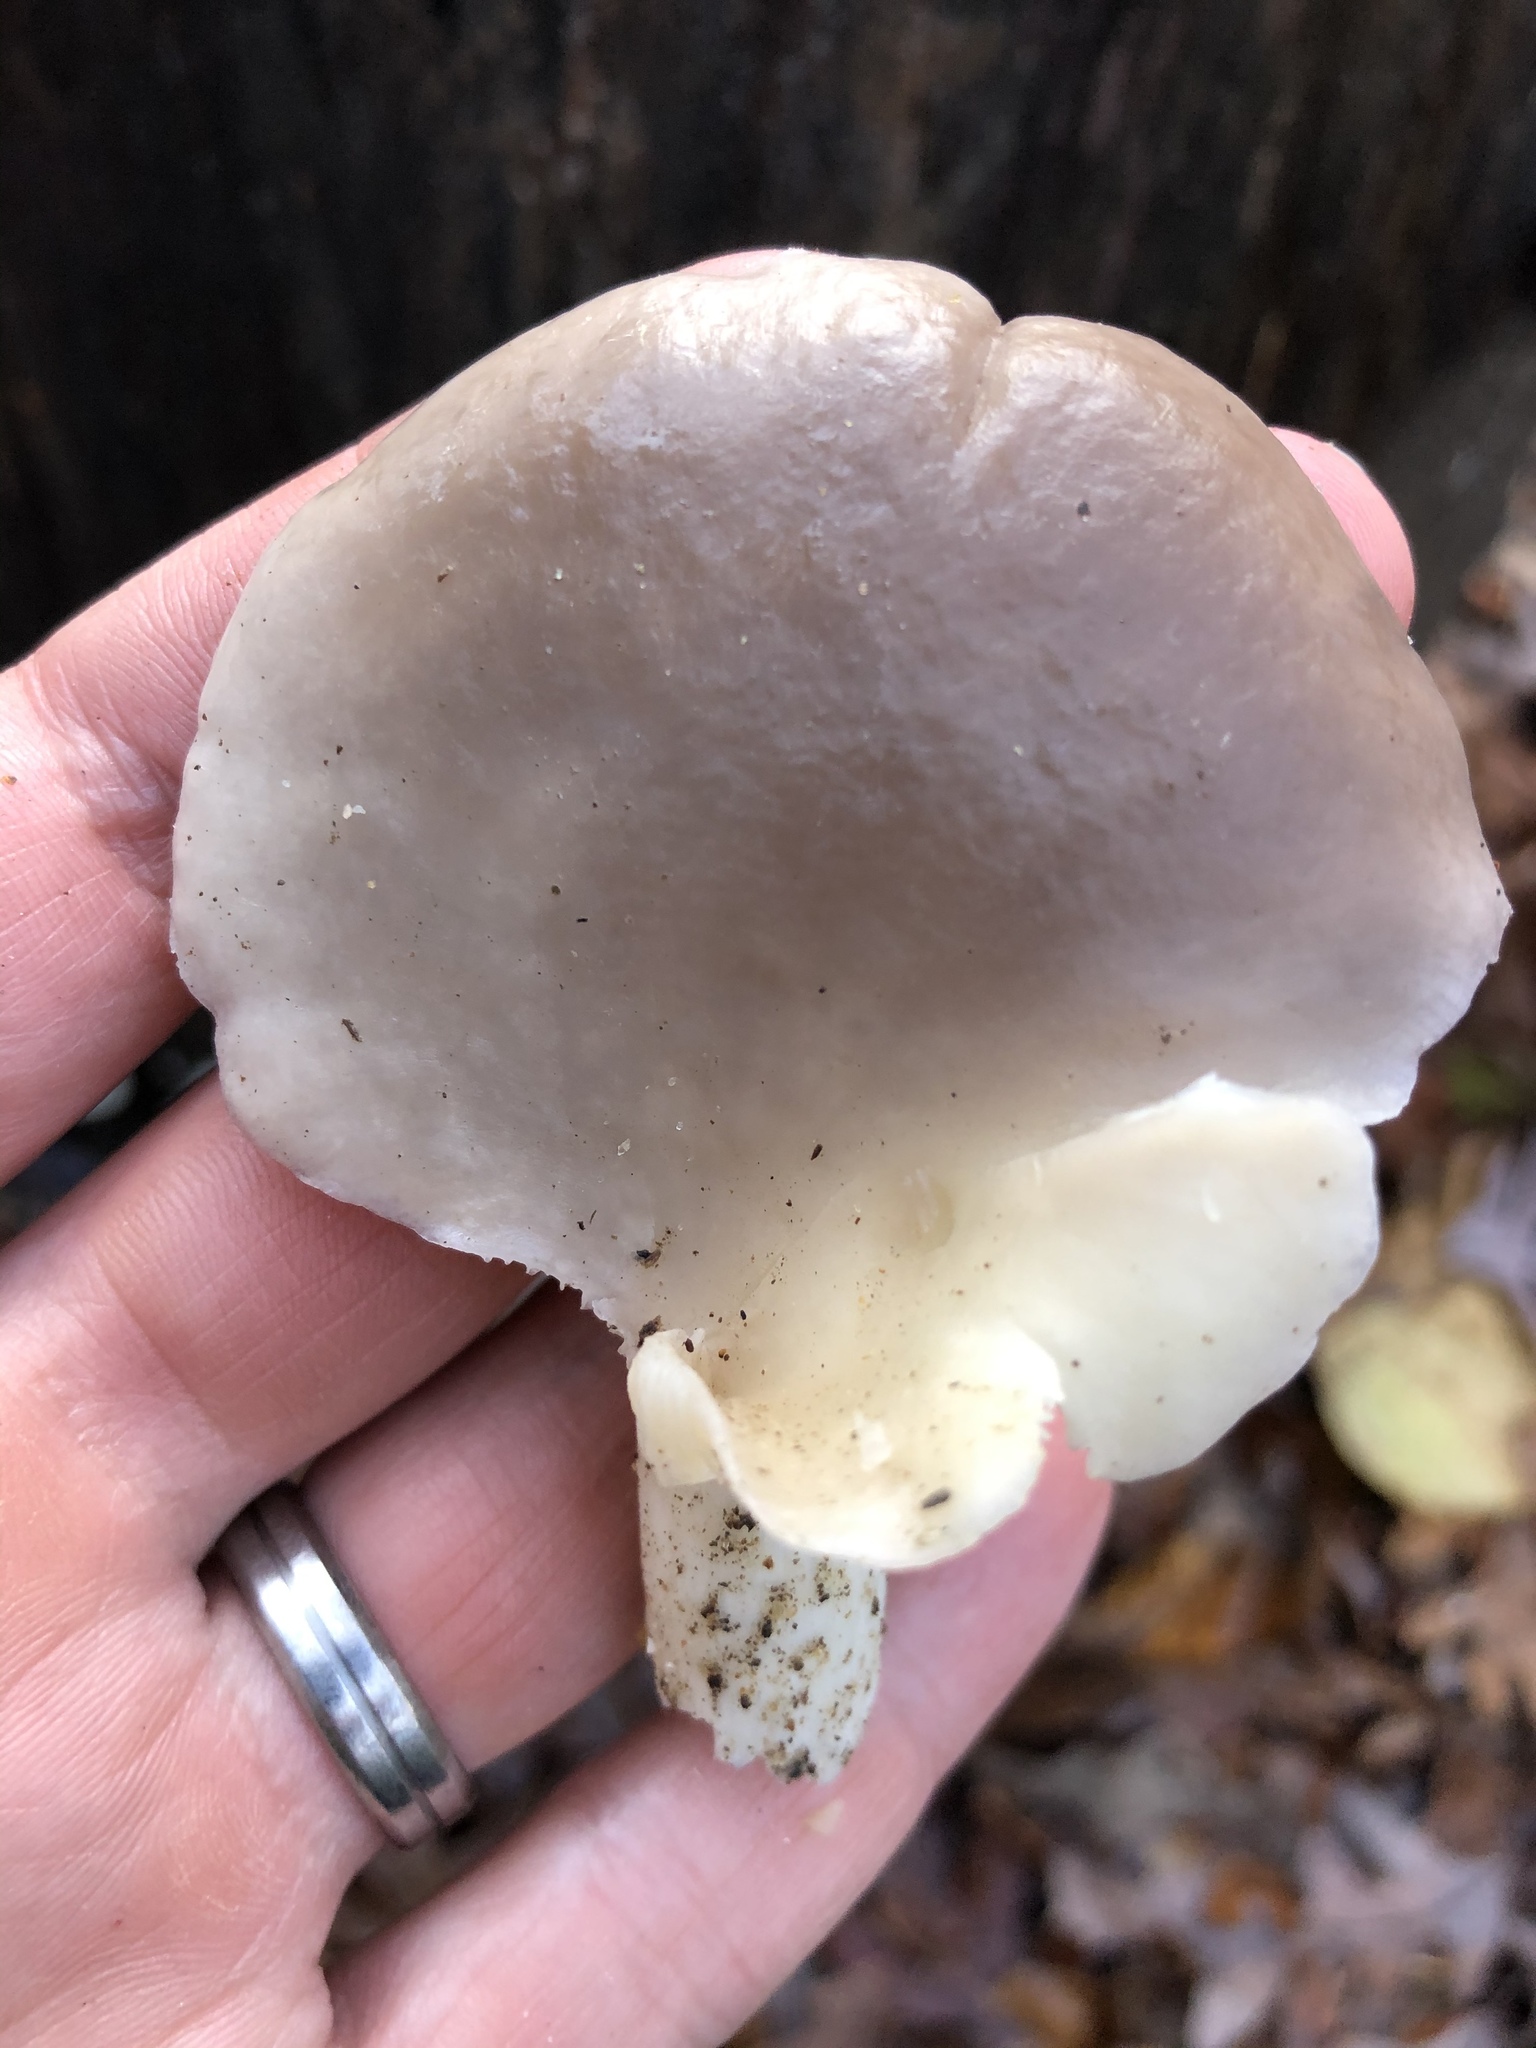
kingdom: Fungi
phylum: Basidiomycota
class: Agaricomycetes
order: Agaricales
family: Pleurotaceae
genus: Pleurotus
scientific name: Pleurotus ostreatus
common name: Oyster mushroom
